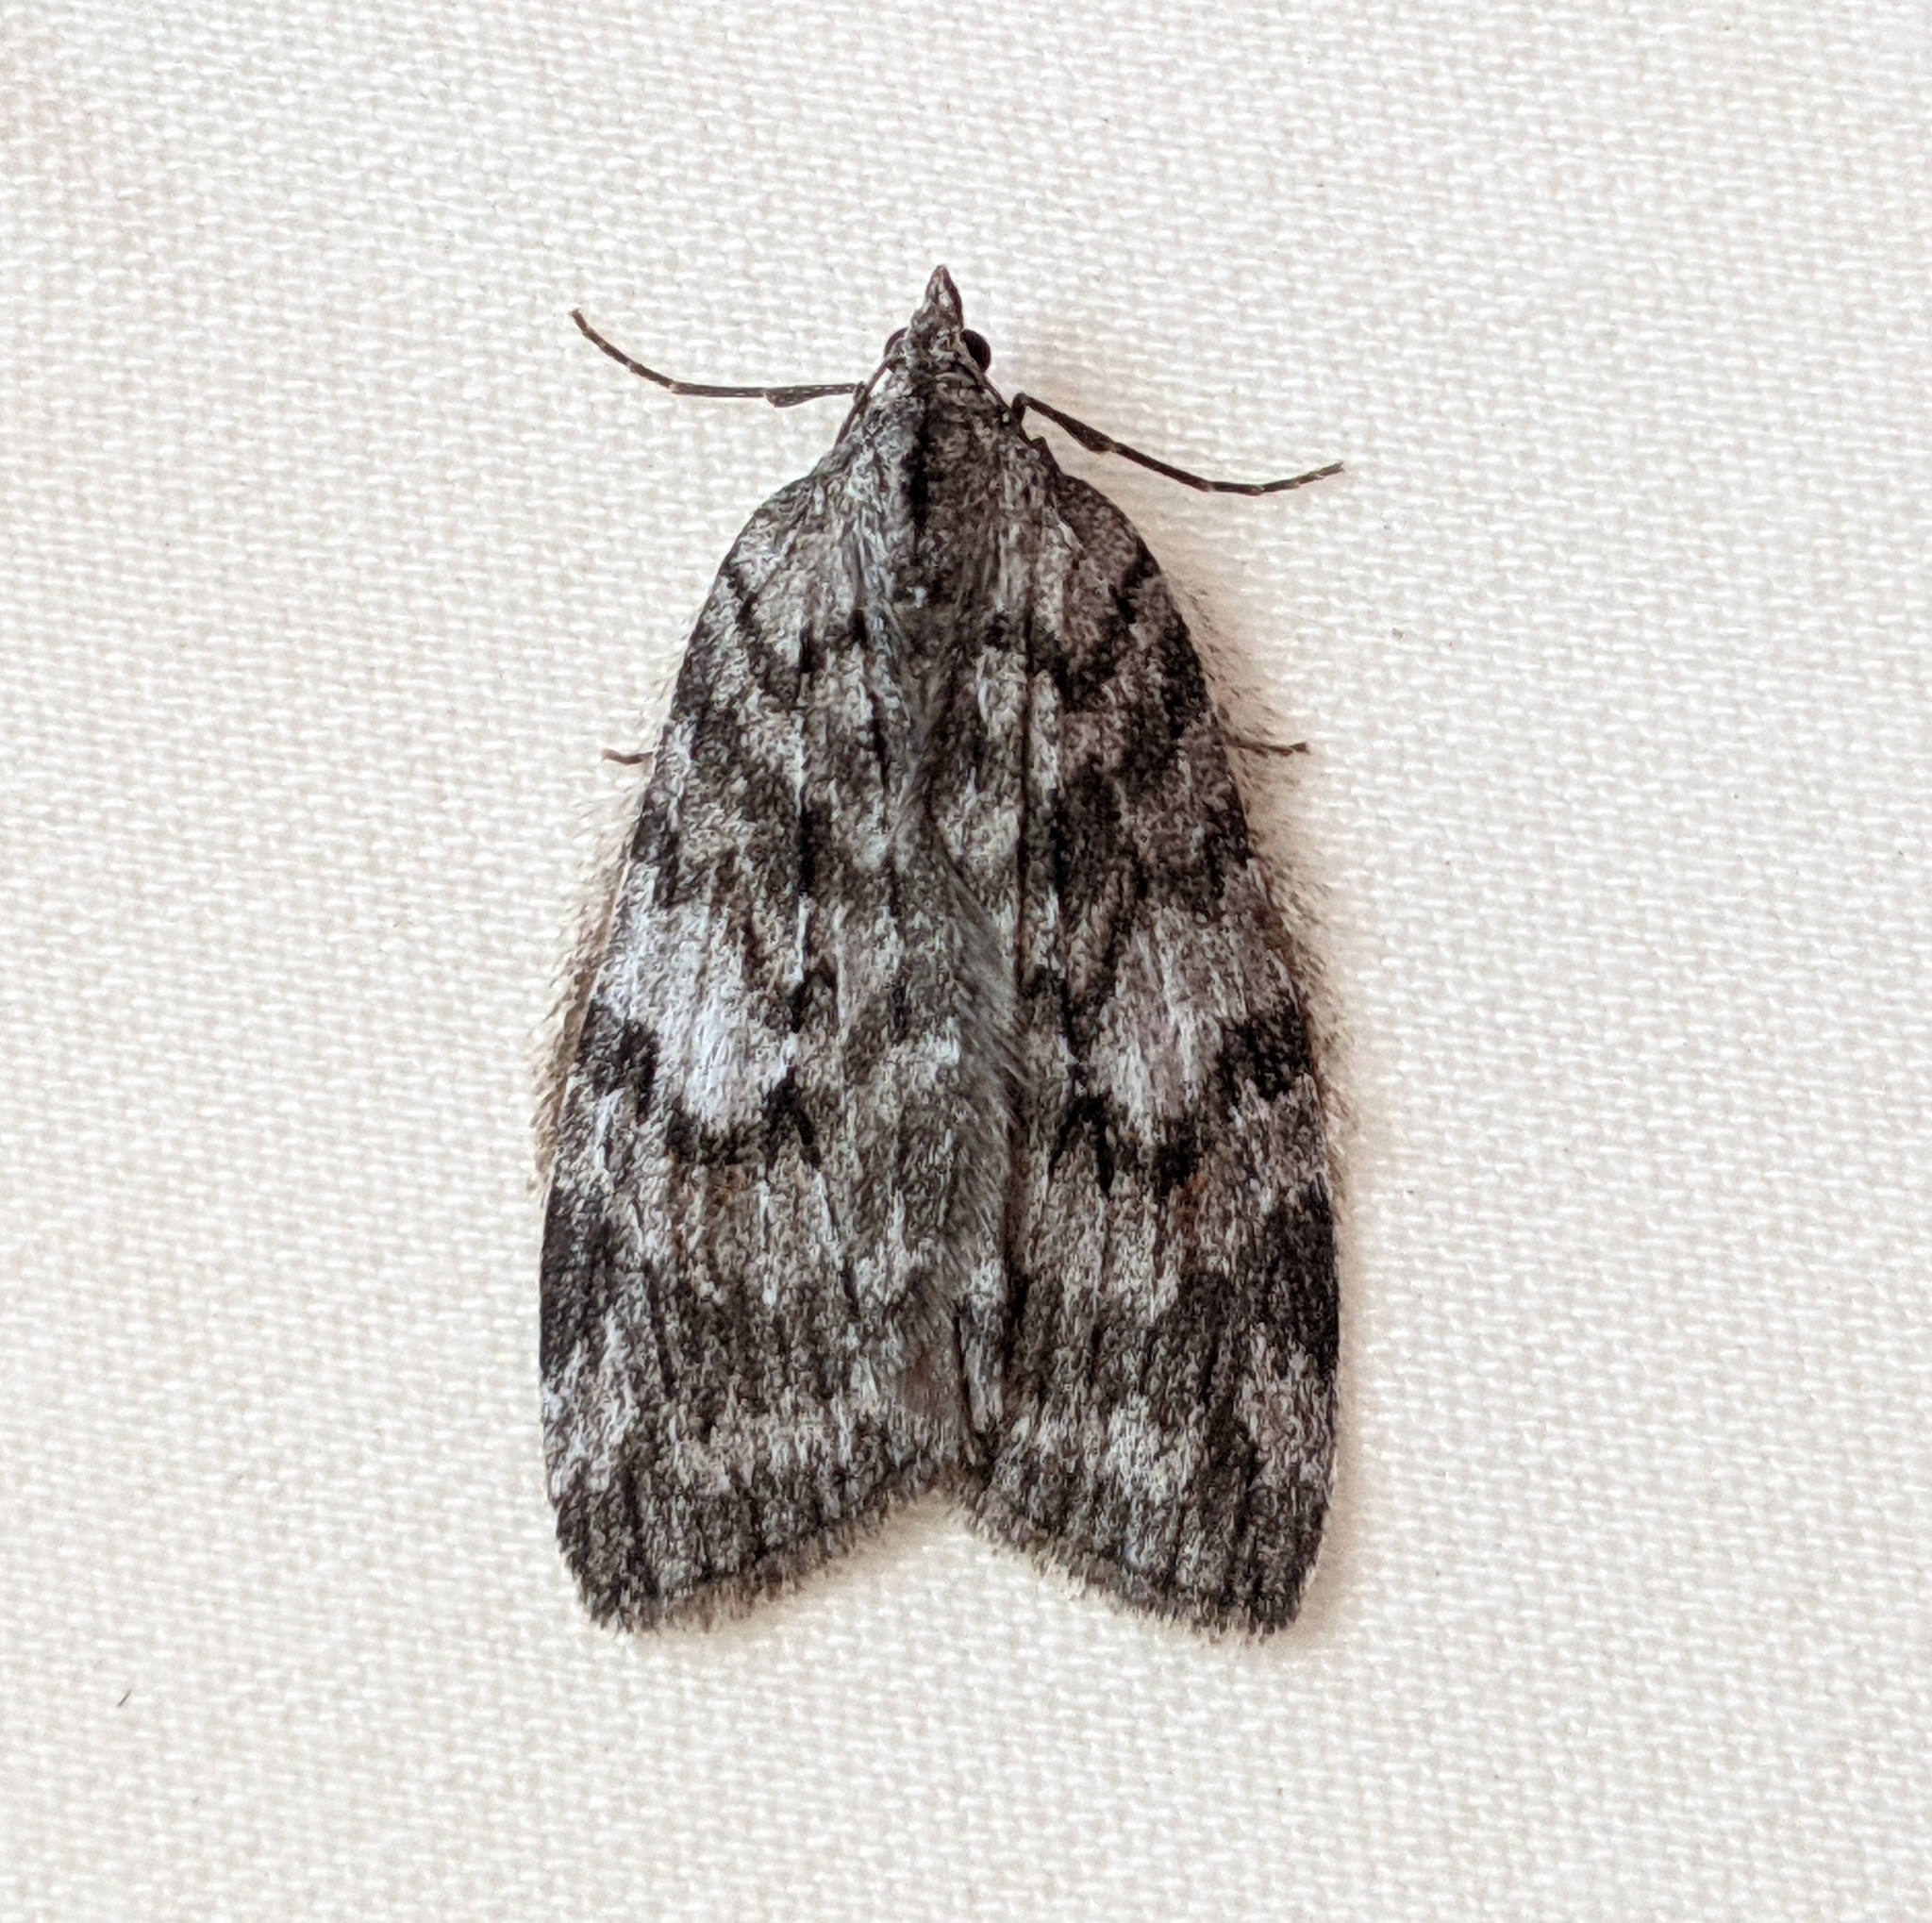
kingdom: Animalia
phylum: Arthropoda
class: Insecta
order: Lepidoptera
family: Geometridae
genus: Hydriomena
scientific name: Hydriomena manzanita
